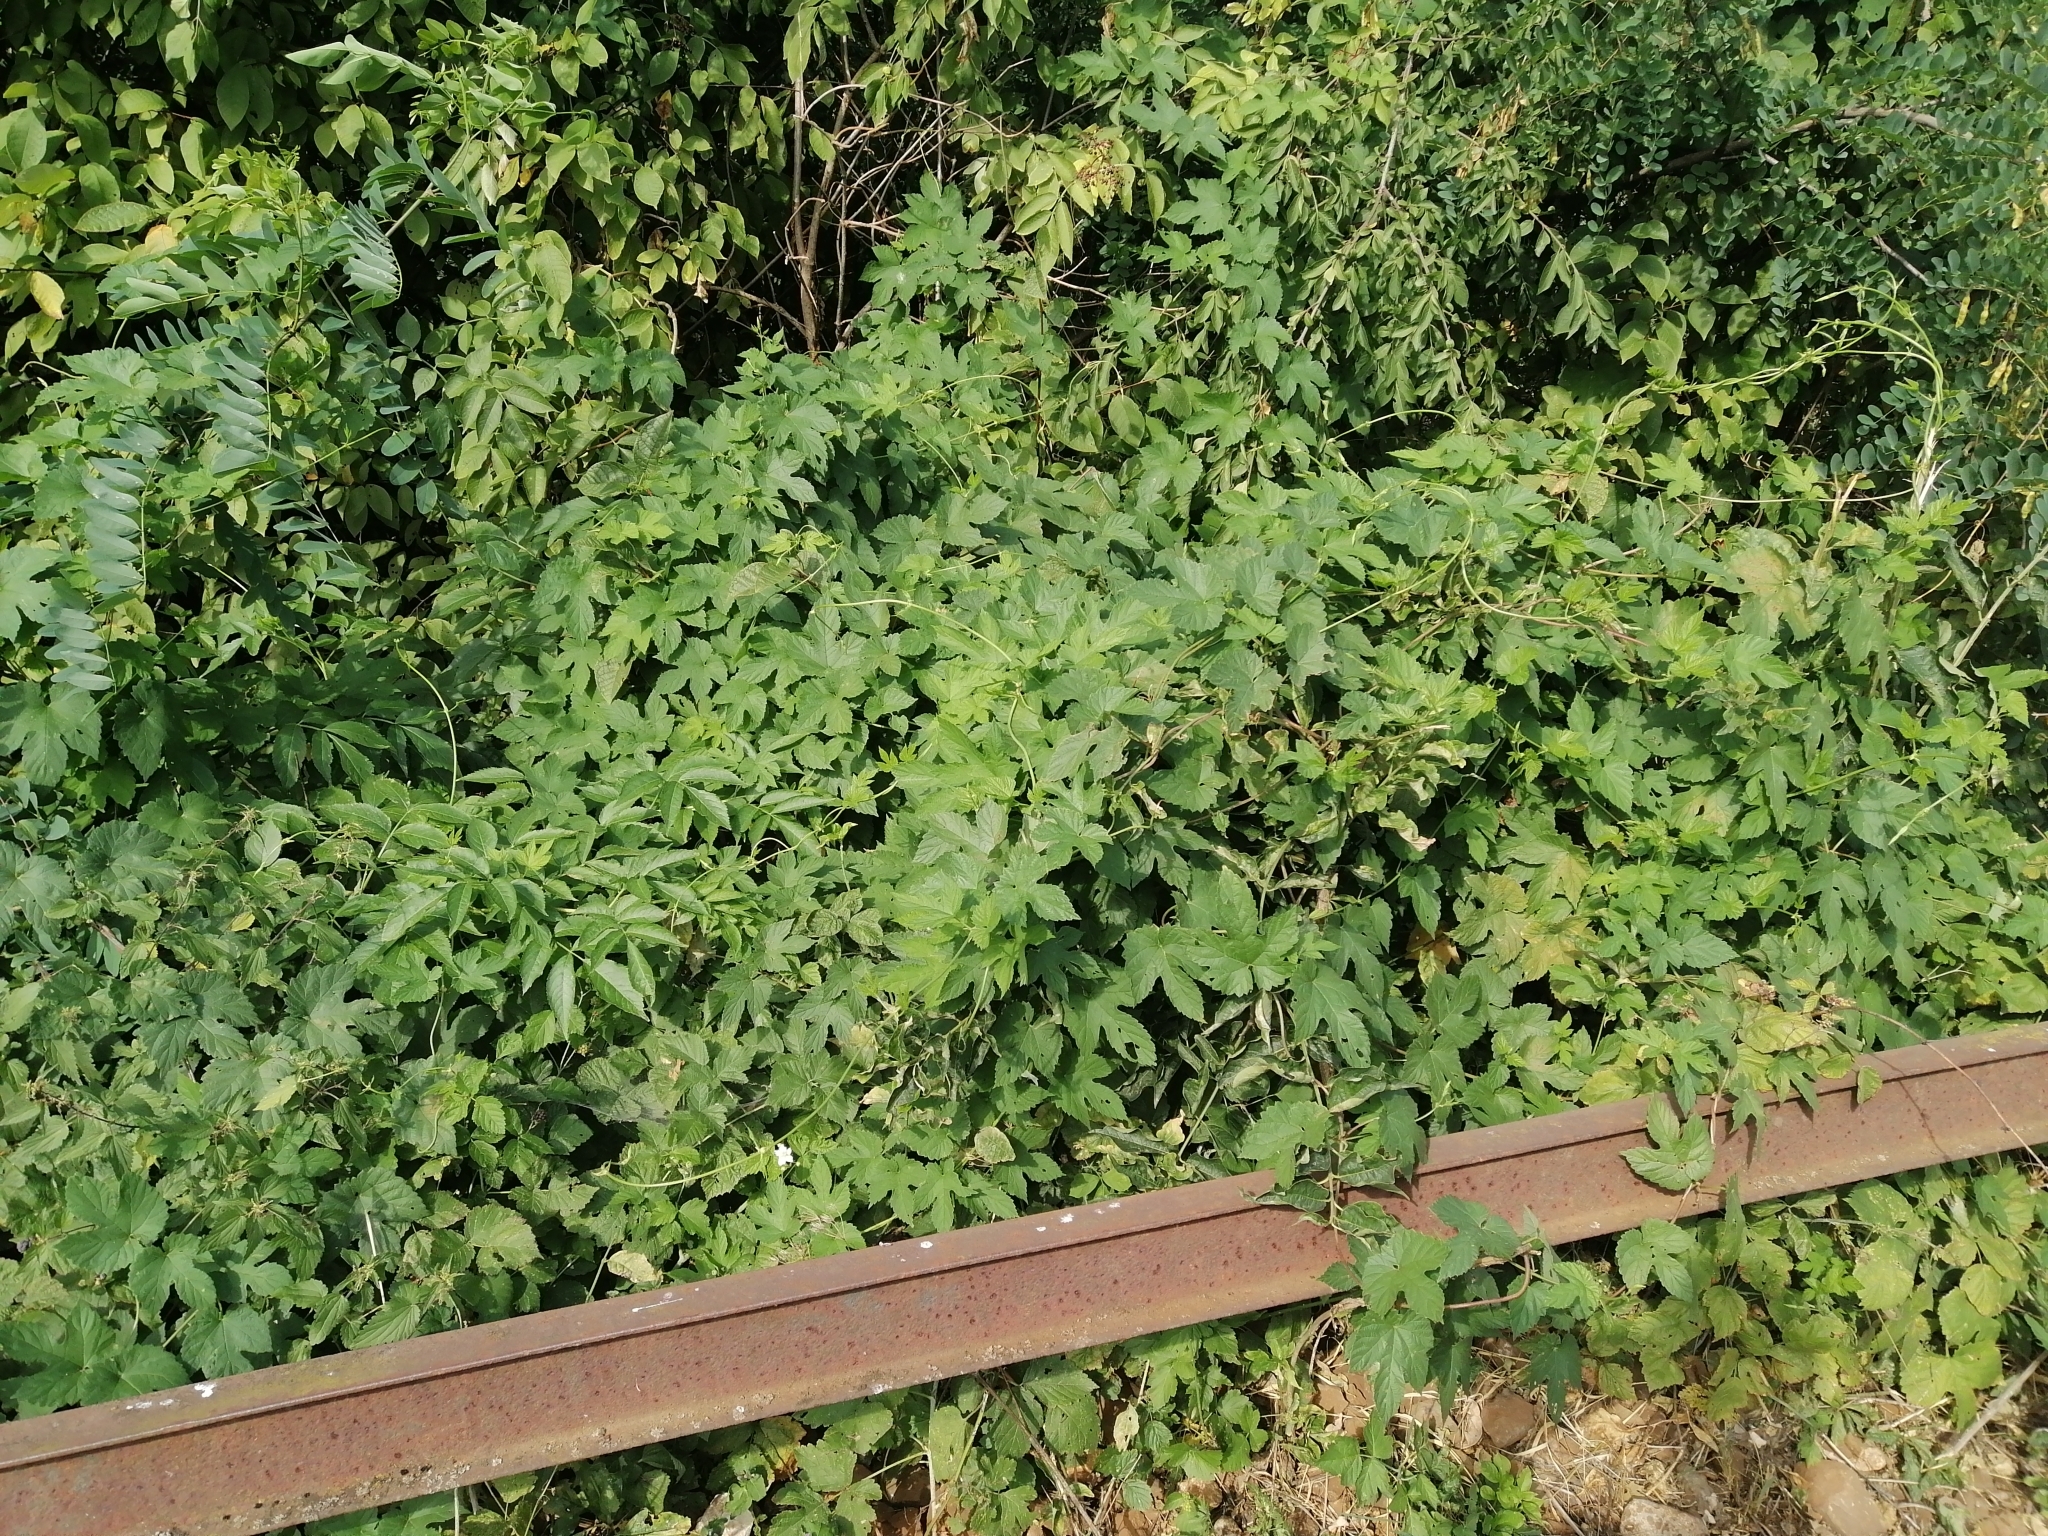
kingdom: Plantae
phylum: Tracheophyta
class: Magnoliopsida
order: Rosales
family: Cannabaceae
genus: Humulus
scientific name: Humulus lupulus
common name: Hop
